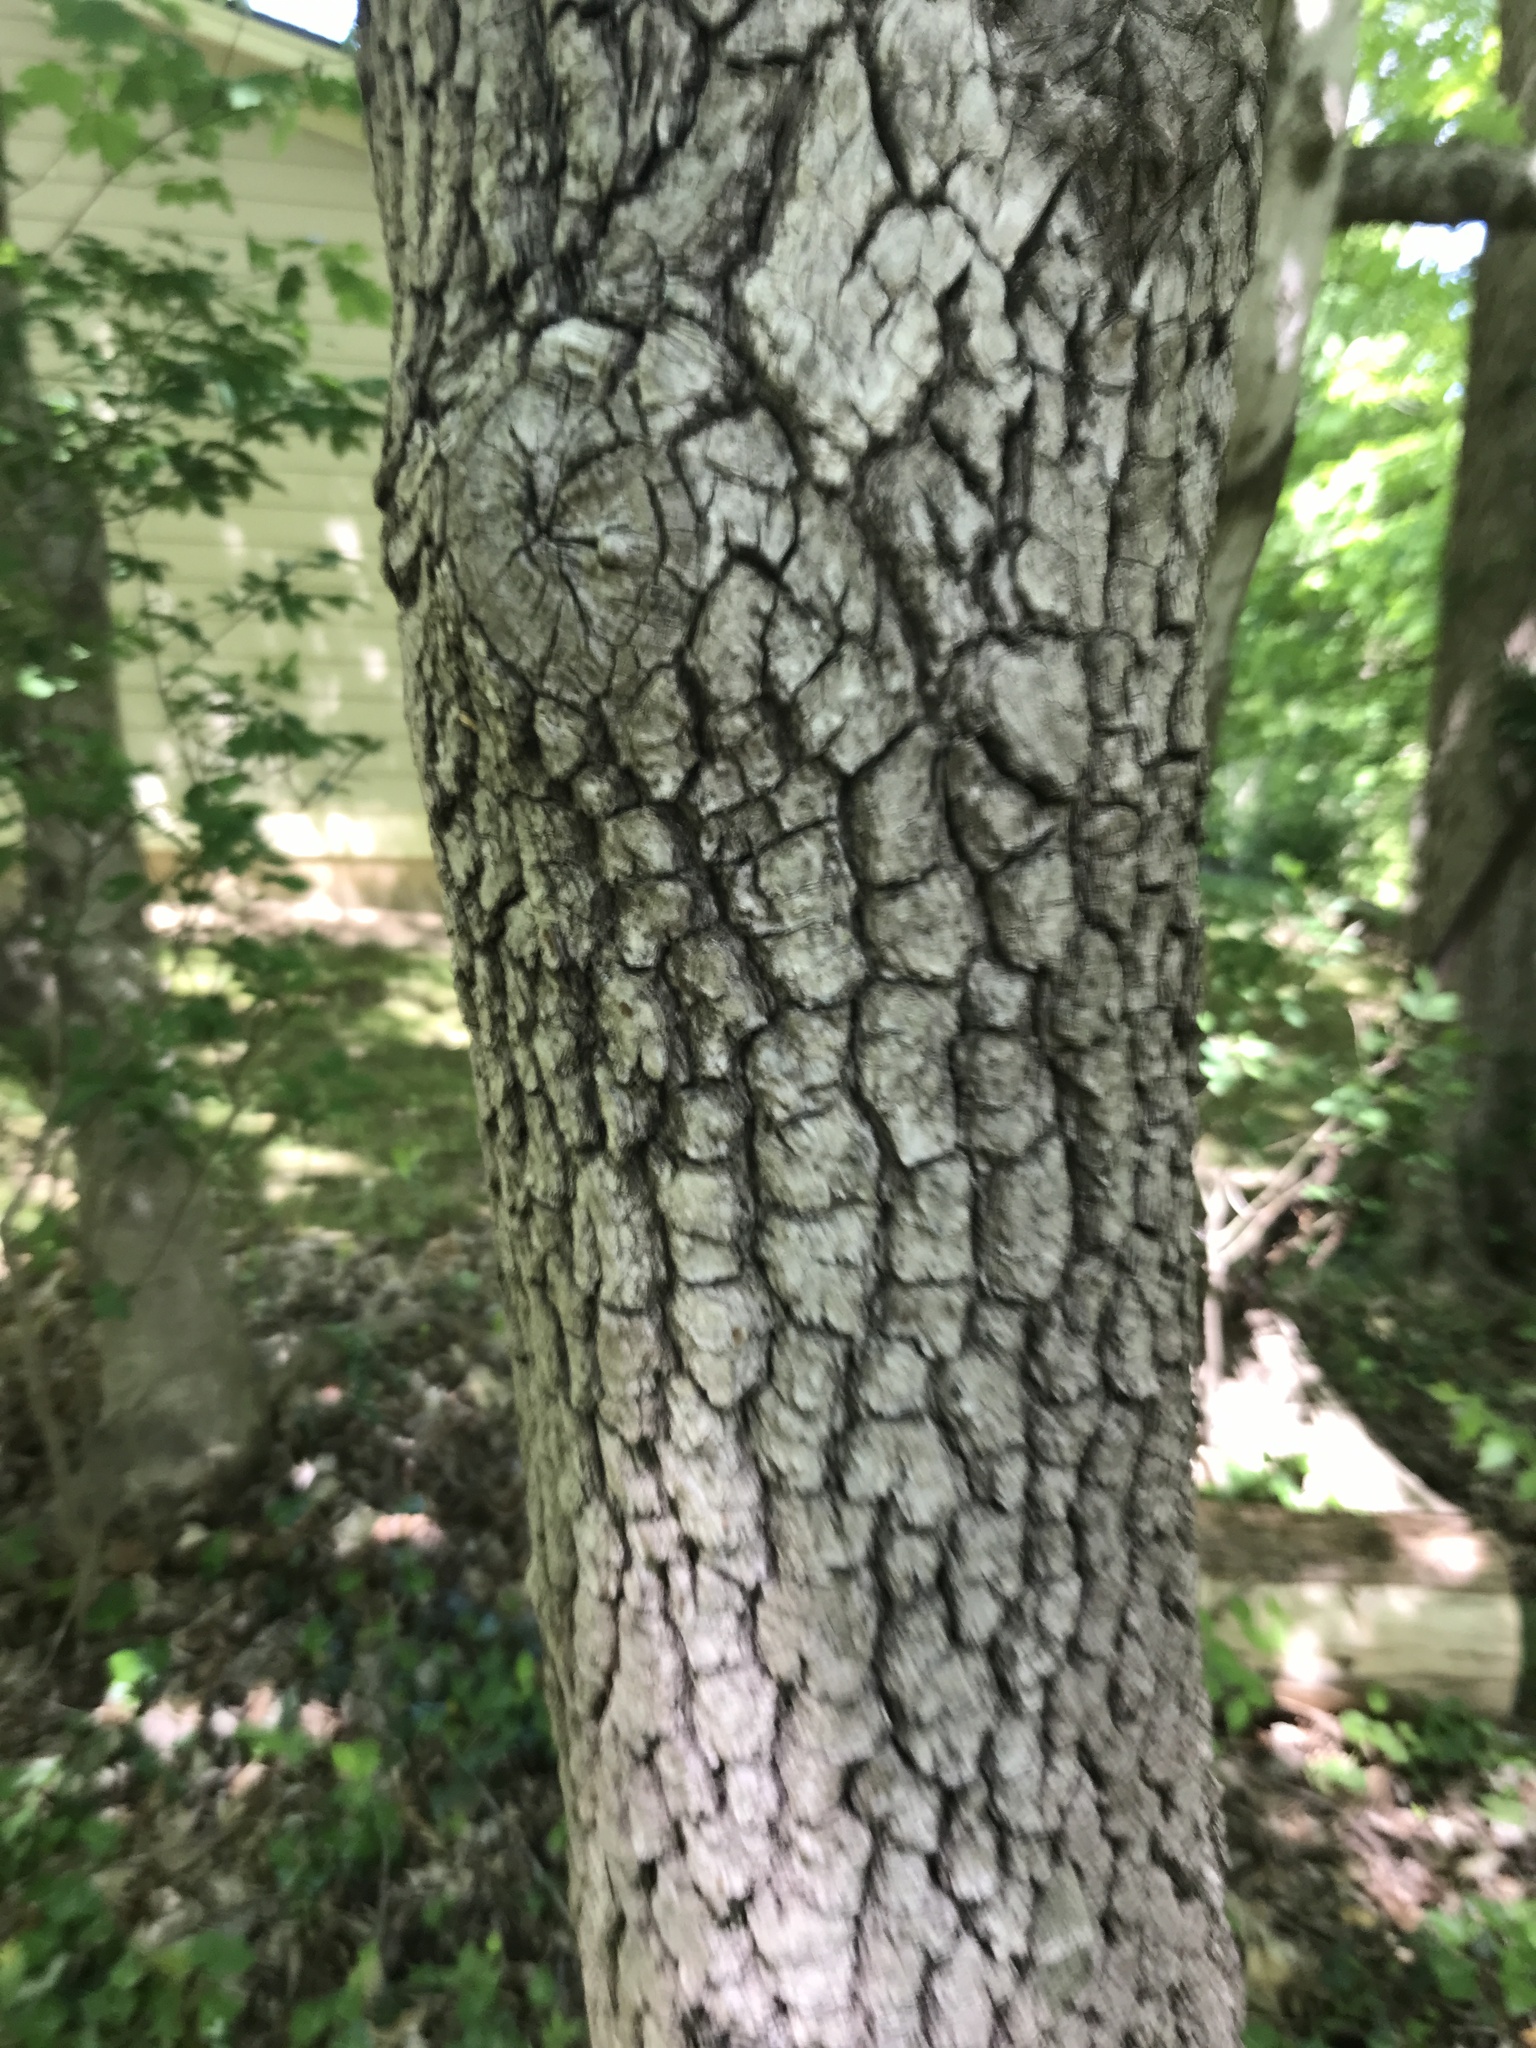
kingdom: Plantae
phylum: Tracheophyta
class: Magnoliopsida
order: Ericales
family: Ebenaceae
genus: Diospyros
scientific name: Diospyros virginiana
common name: Persimmon
